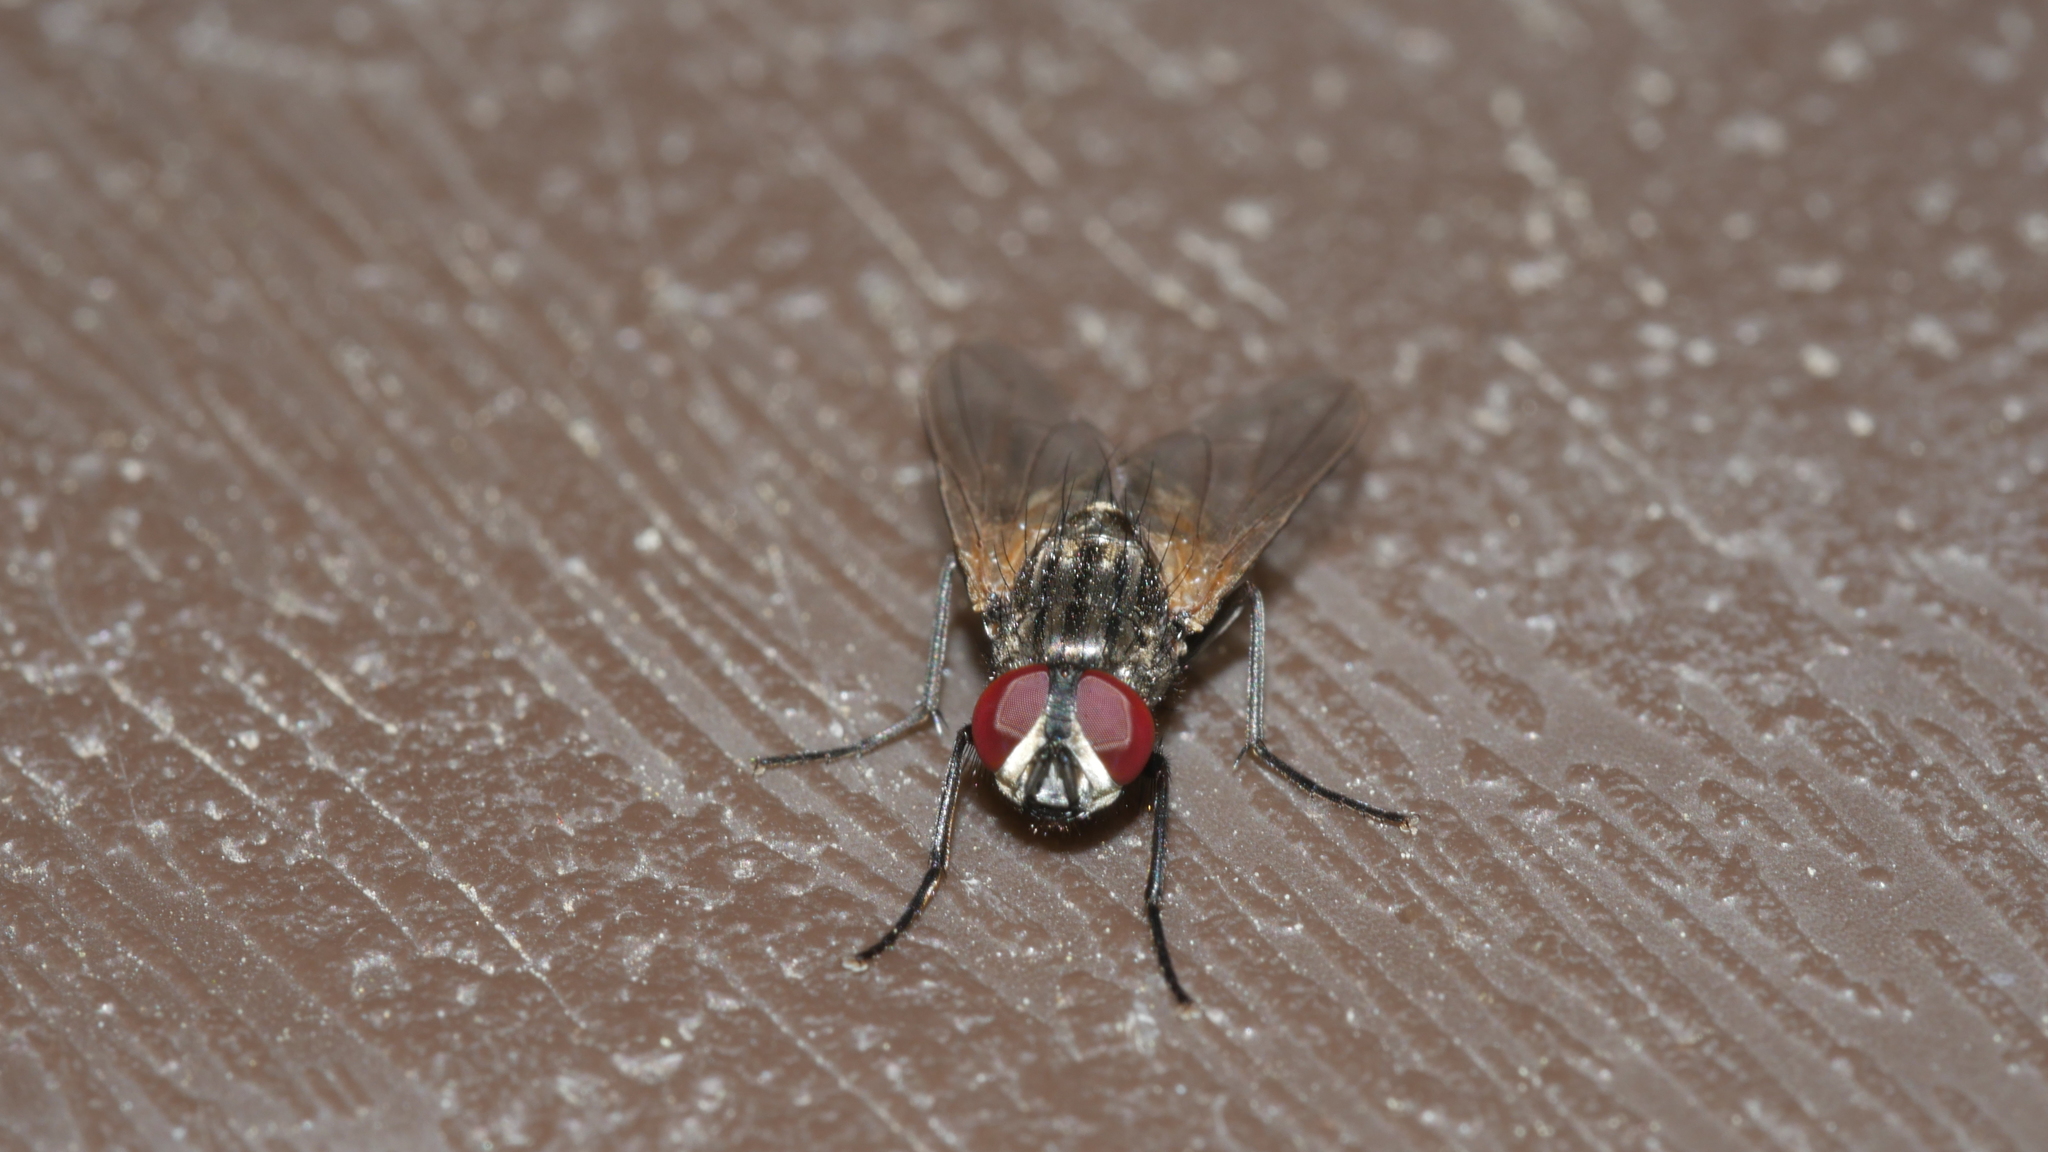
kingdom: Animalia
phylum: Arthropoda
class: Insecta
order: Diptera
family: Muscidae
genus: Musca
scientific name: Musca domestica
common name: House fly
